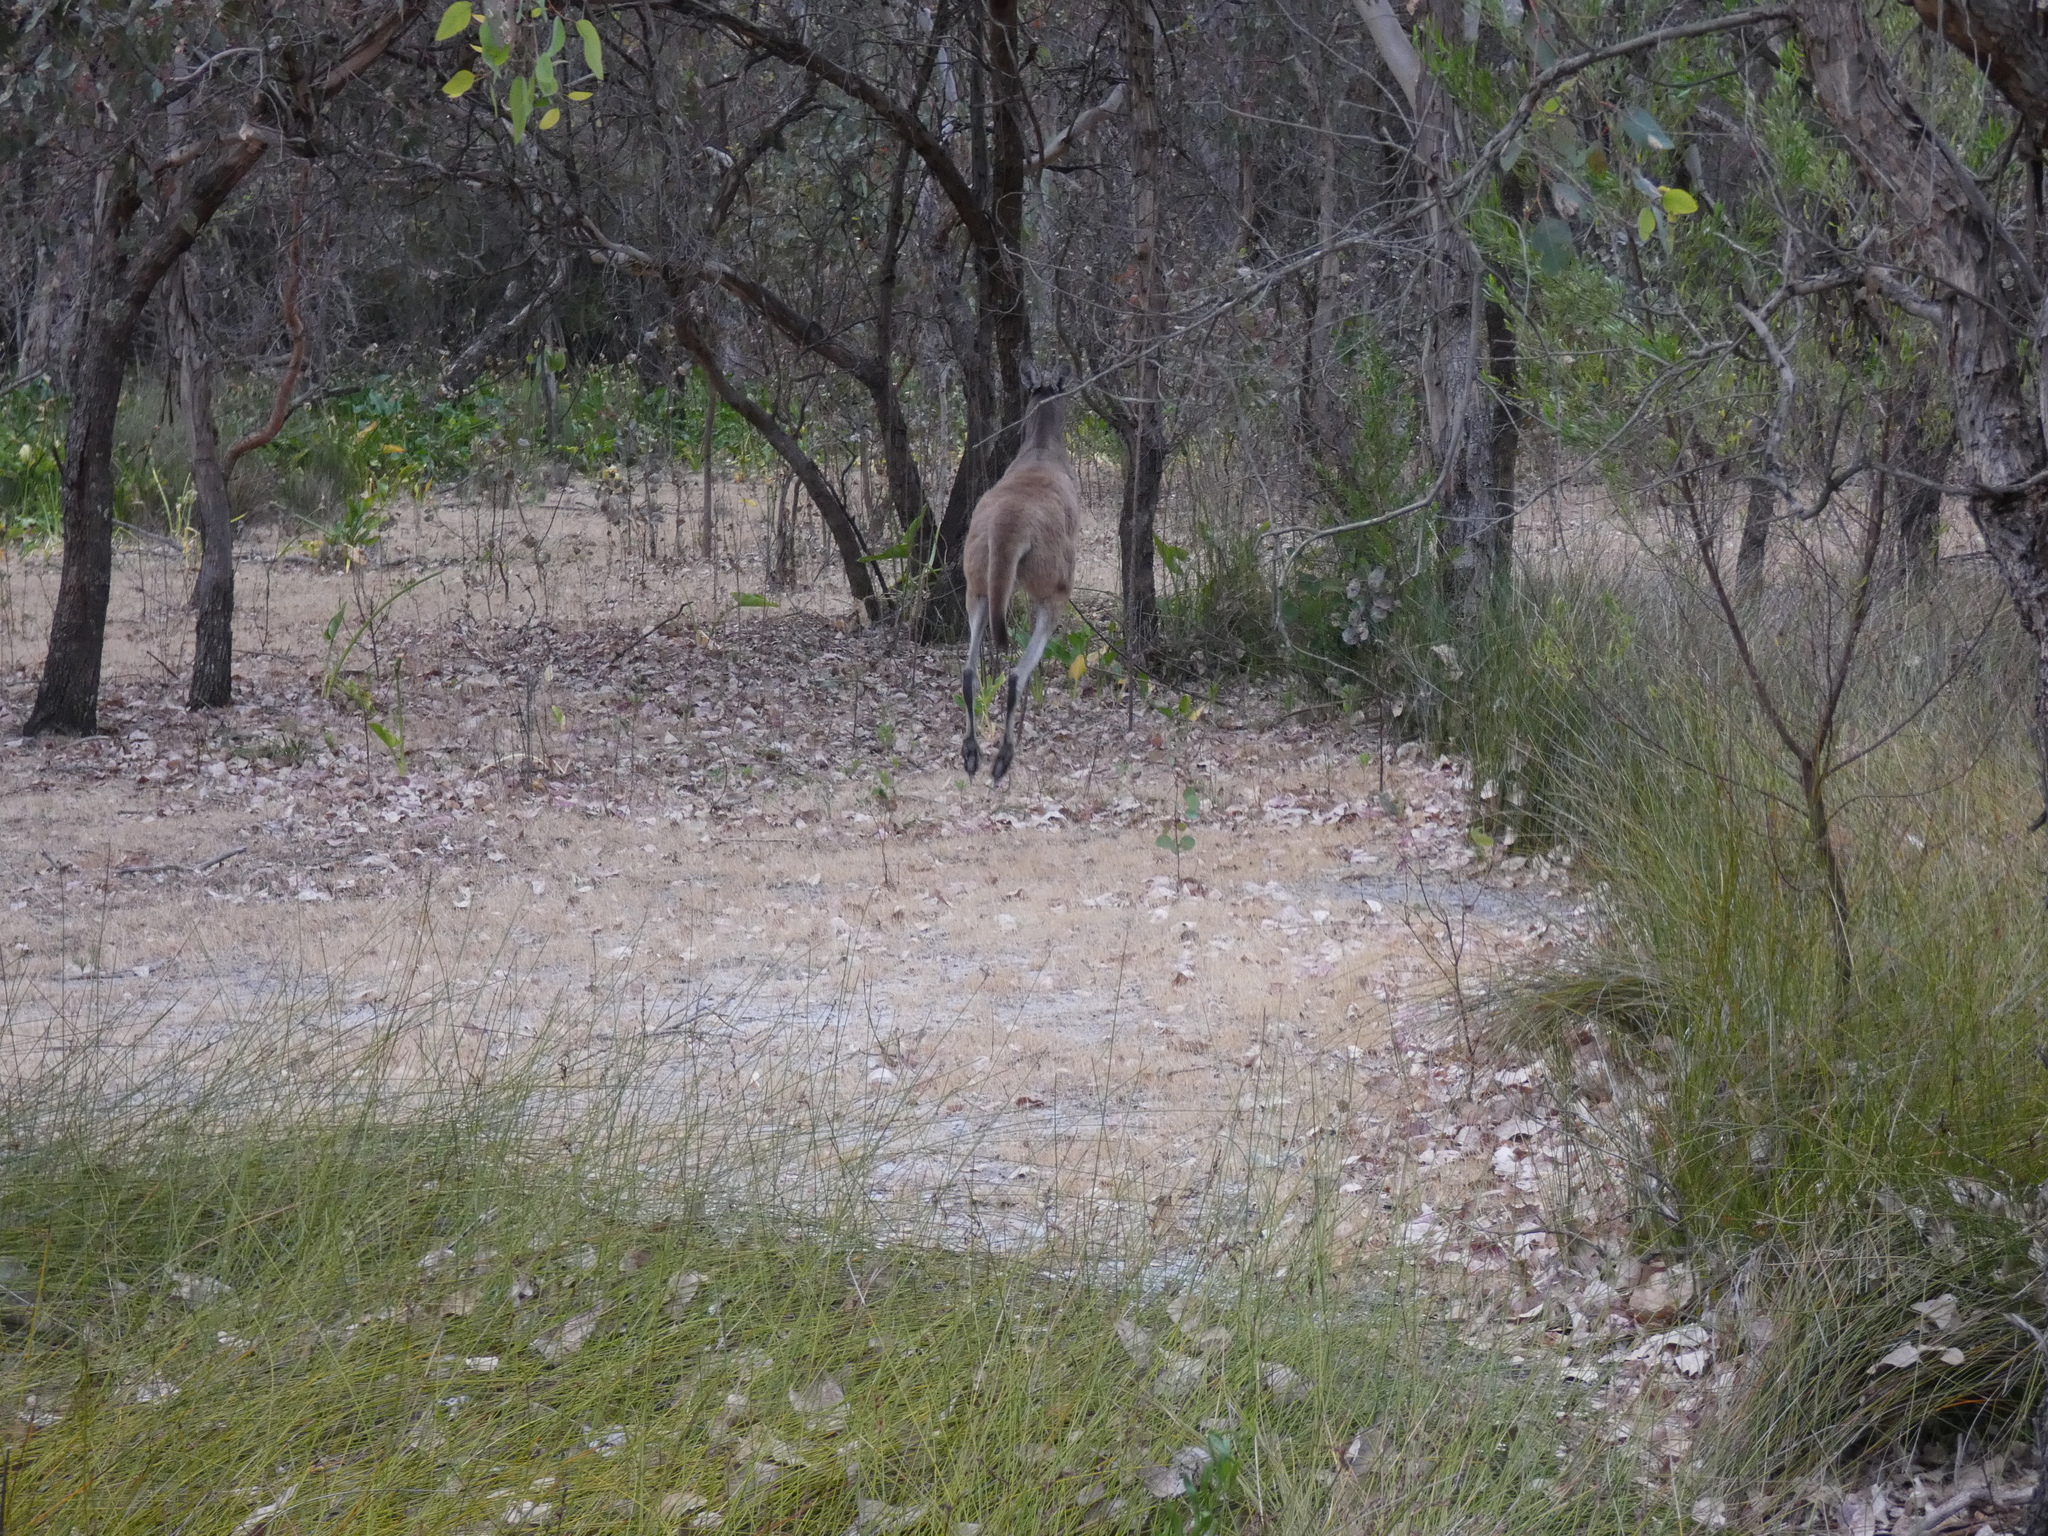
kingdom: Animalia
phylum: Chordata
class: Mammalia
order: Diprotodontia
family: Macropodidae
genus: Macropus
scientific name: Macropus fuliginosus
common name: Western grey kangaroo
